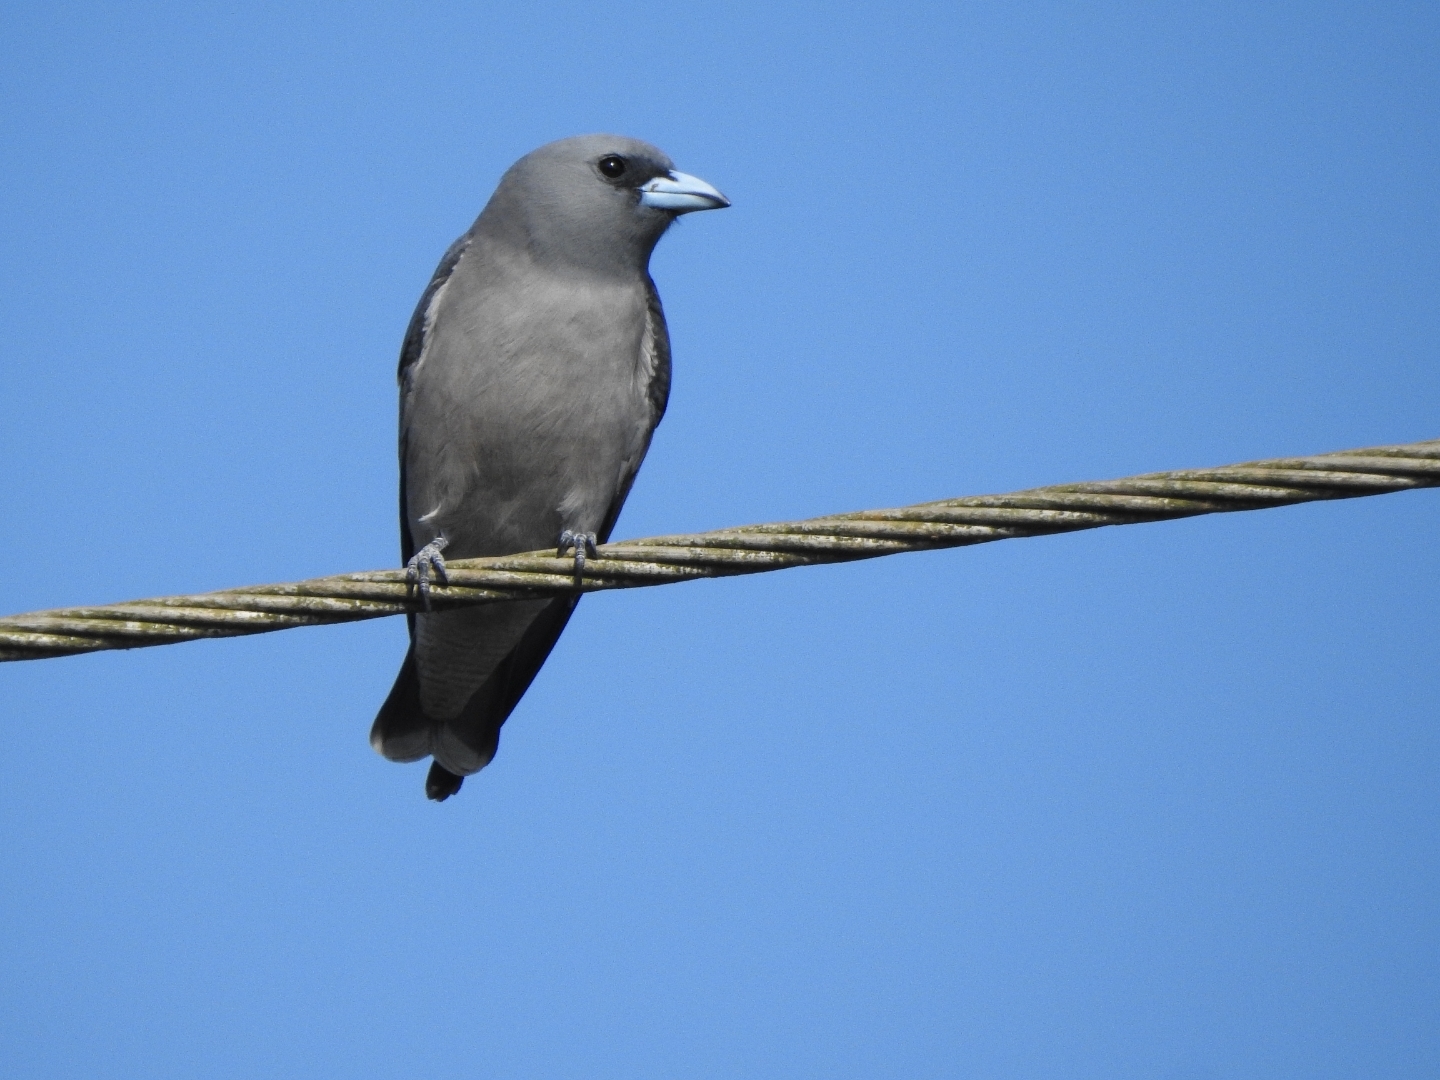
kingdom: Animalia
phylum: Chordata
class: Aves
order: Passeriformes
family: Artamidae
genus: Artamus
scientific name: Artamus fuscus
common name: Ashy woodswallow
